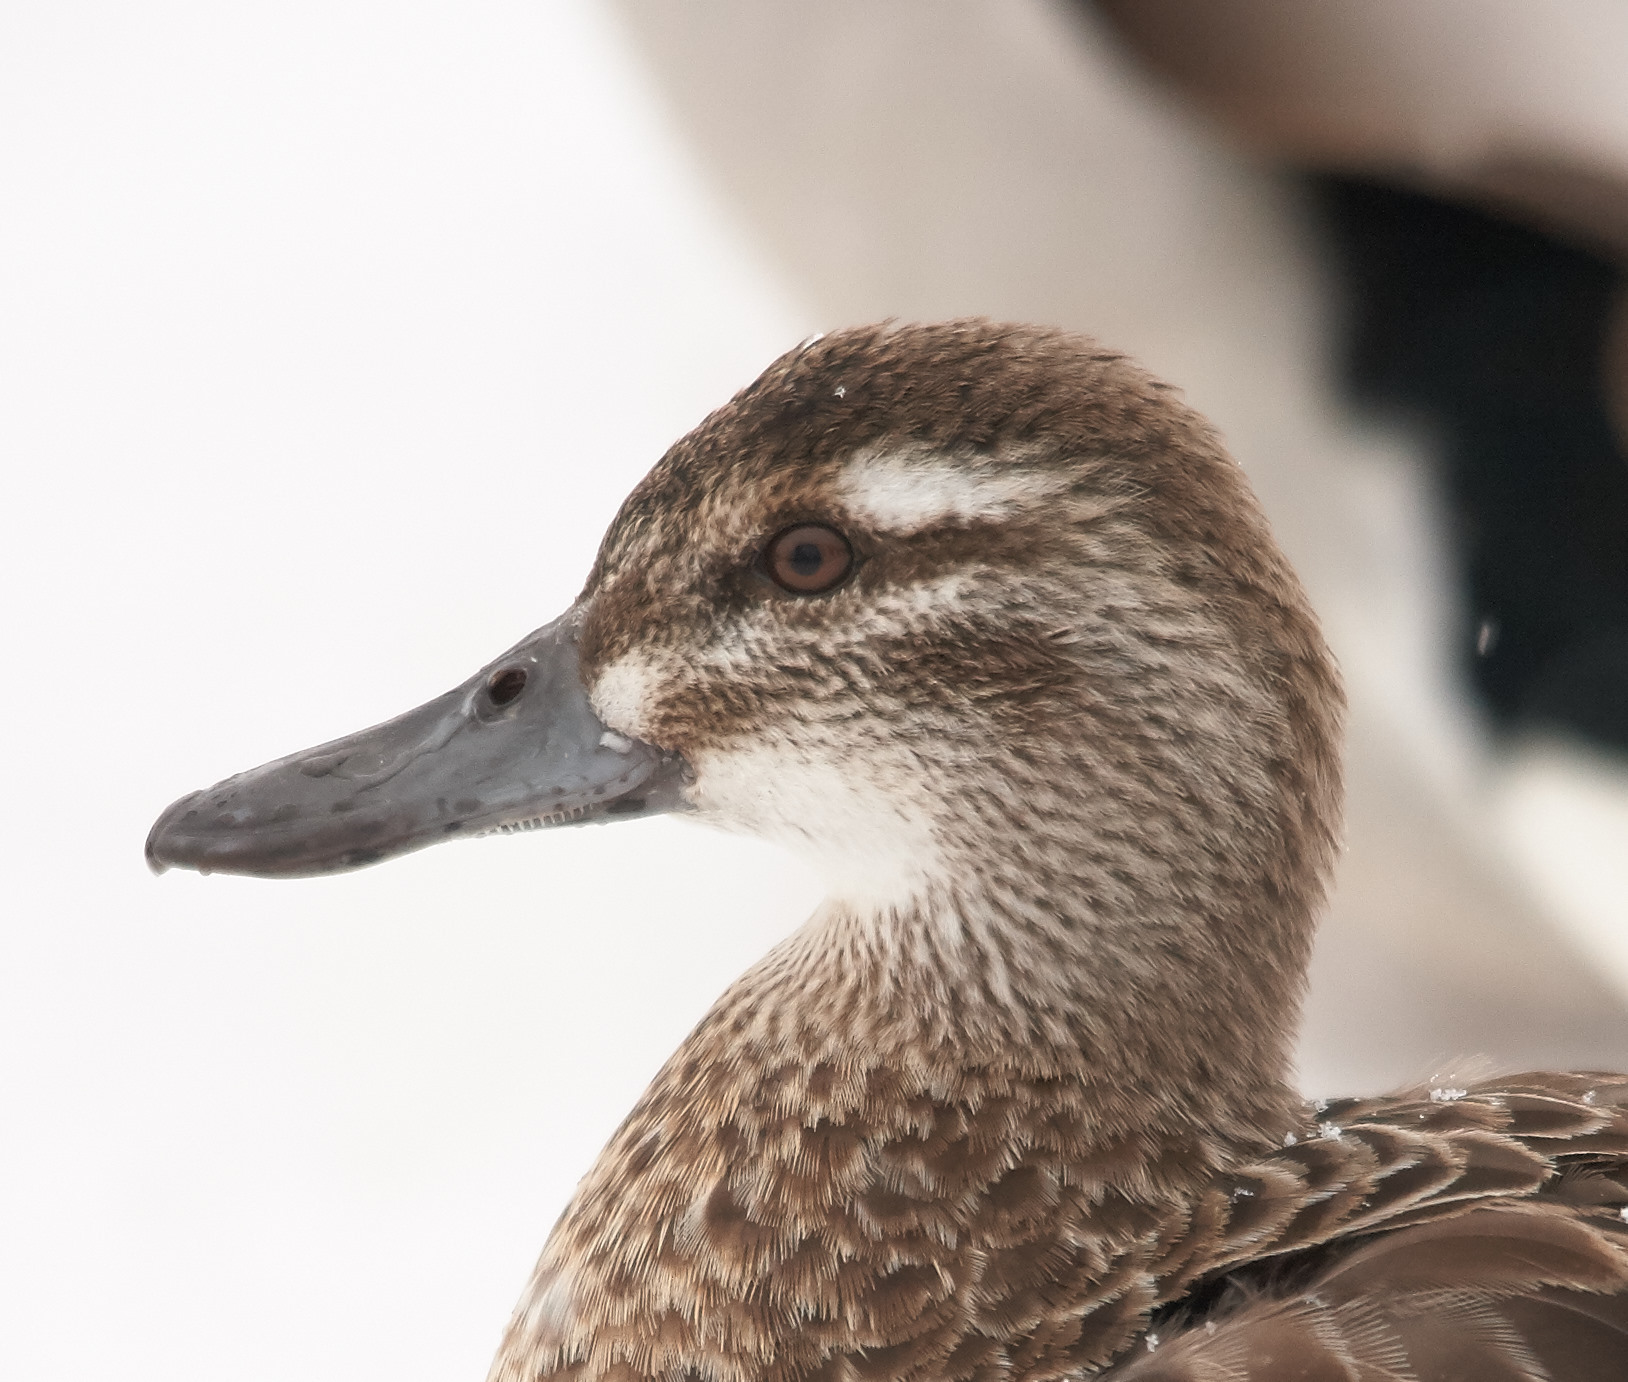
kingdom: Animalia
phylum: Chordata
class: Aves
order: Anseriformes
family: Anatidae
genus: Spatula
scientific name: Spatula querquedula
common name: Garganey
